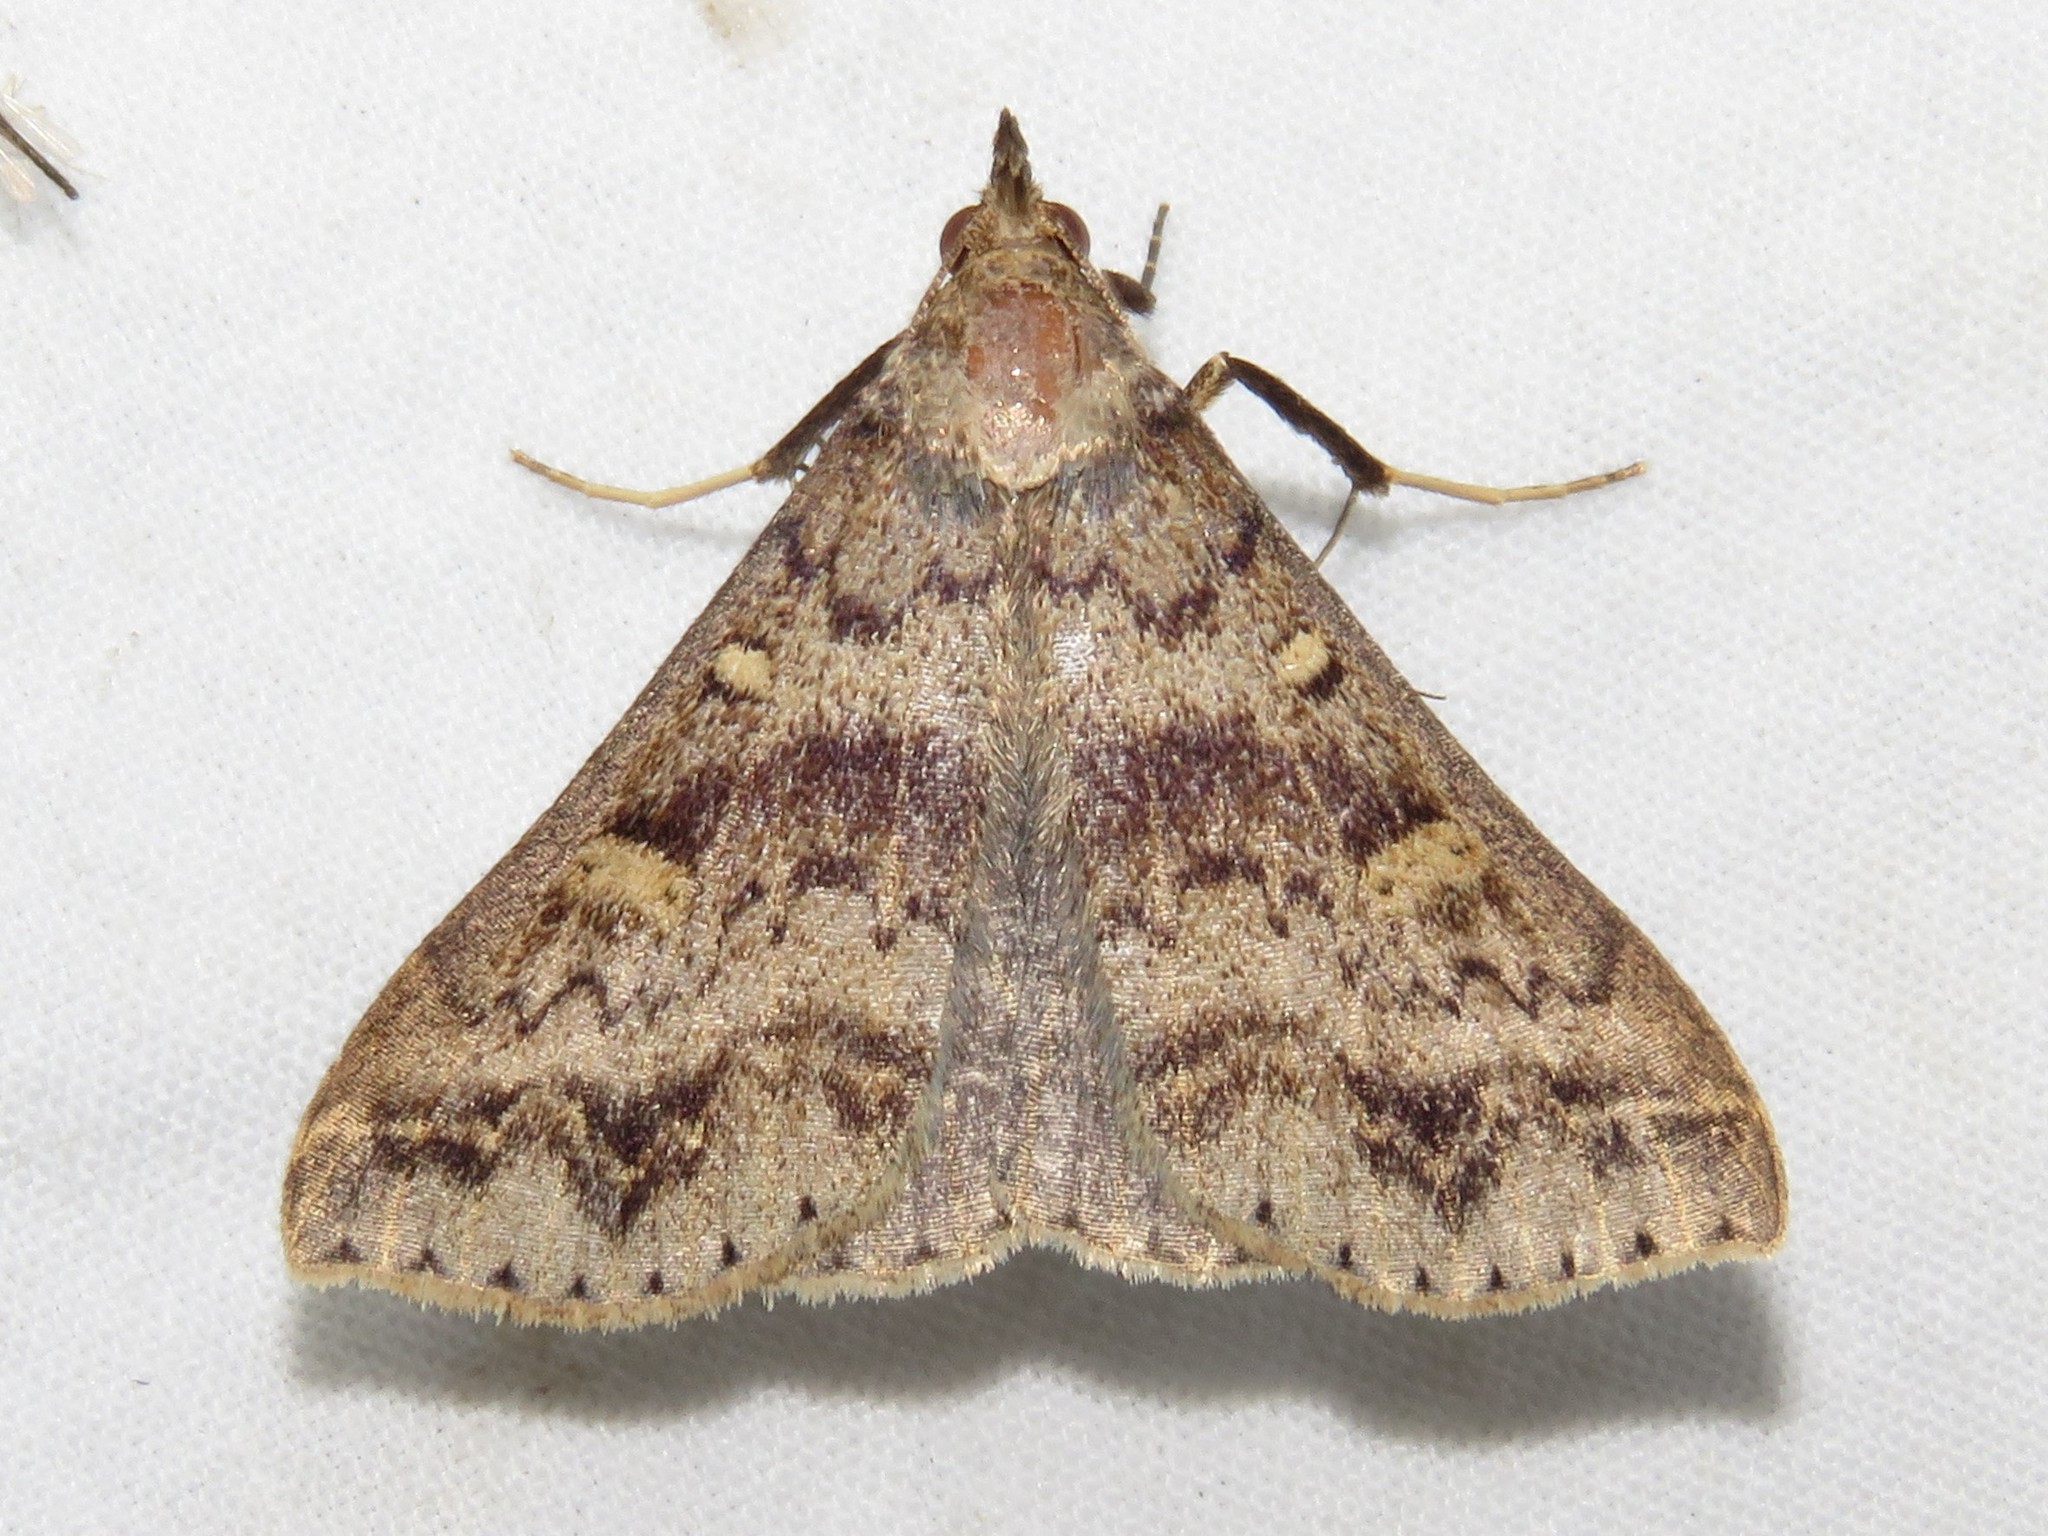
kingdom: Animalia
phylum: Arthropoda
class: Insecta
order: Lepidoptera
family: Erebidae
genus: Renia
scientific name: Renia discoloralis
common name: Discolored renia moth
